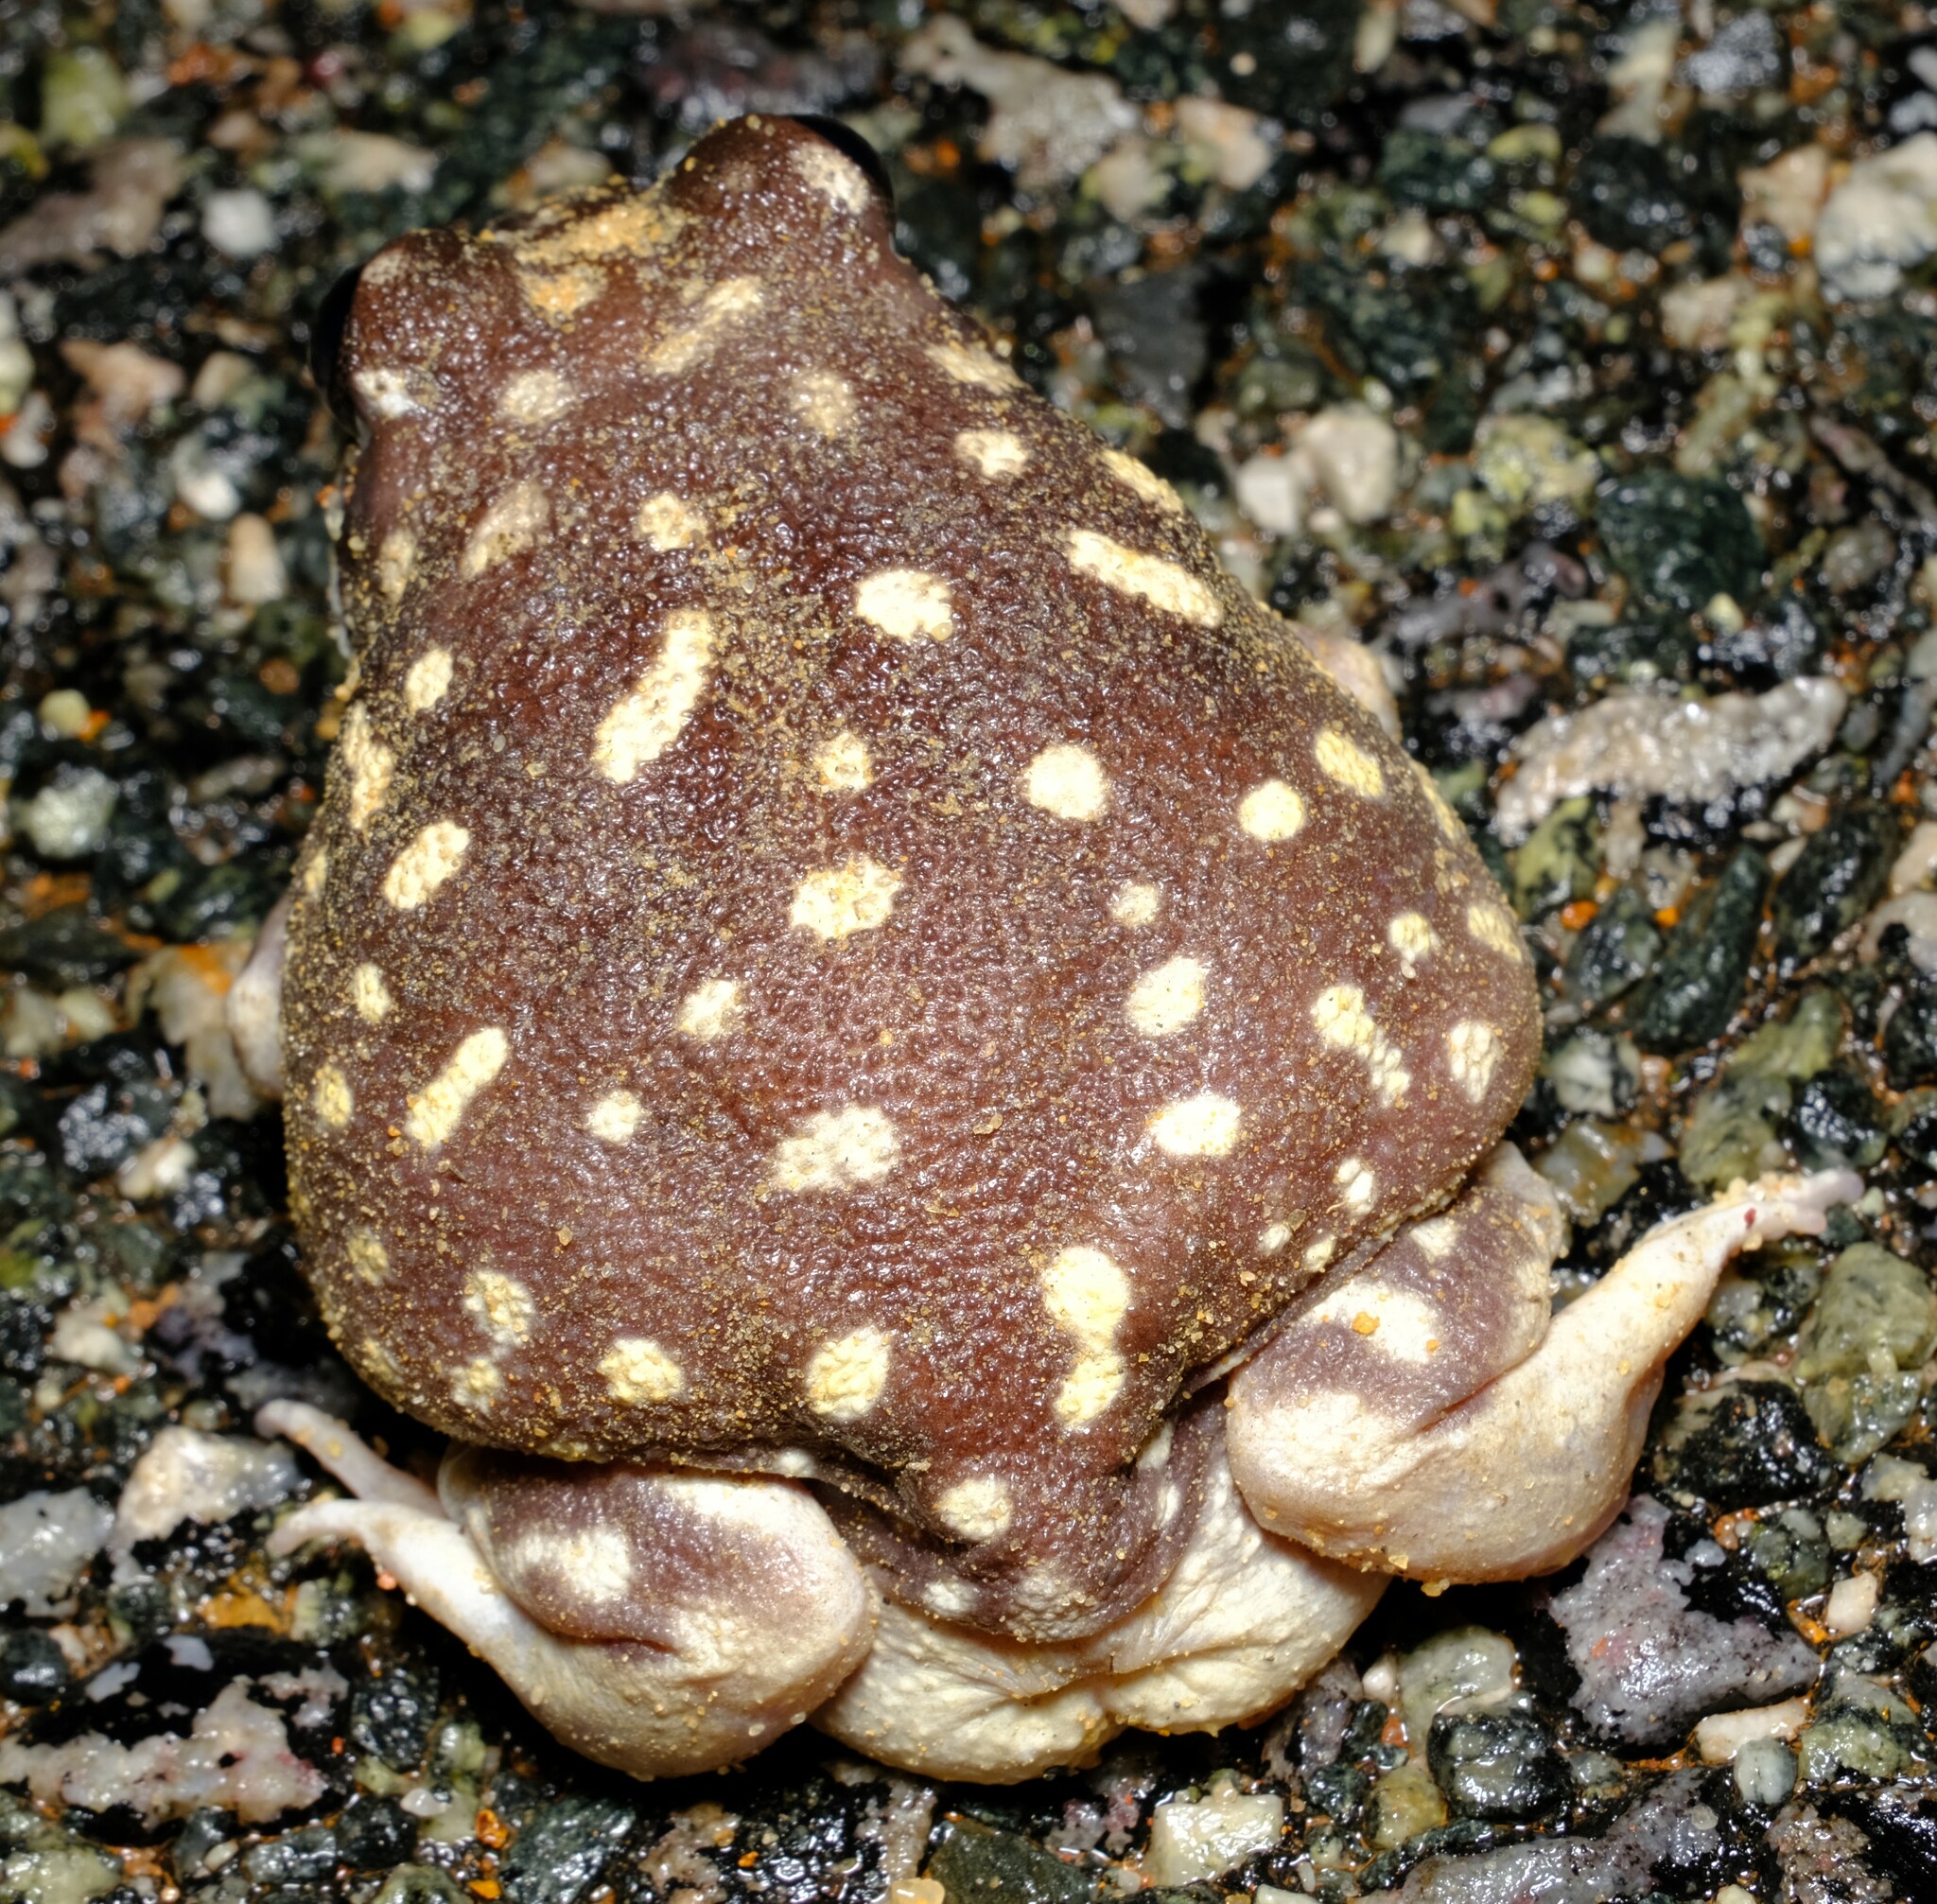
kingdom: Animalia
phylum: Chordata
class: Amphibia
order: Anura
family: Limnodynastidae
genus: Heleioporus
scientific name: Heleioporus albopunctatus
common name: Western spotted frog
